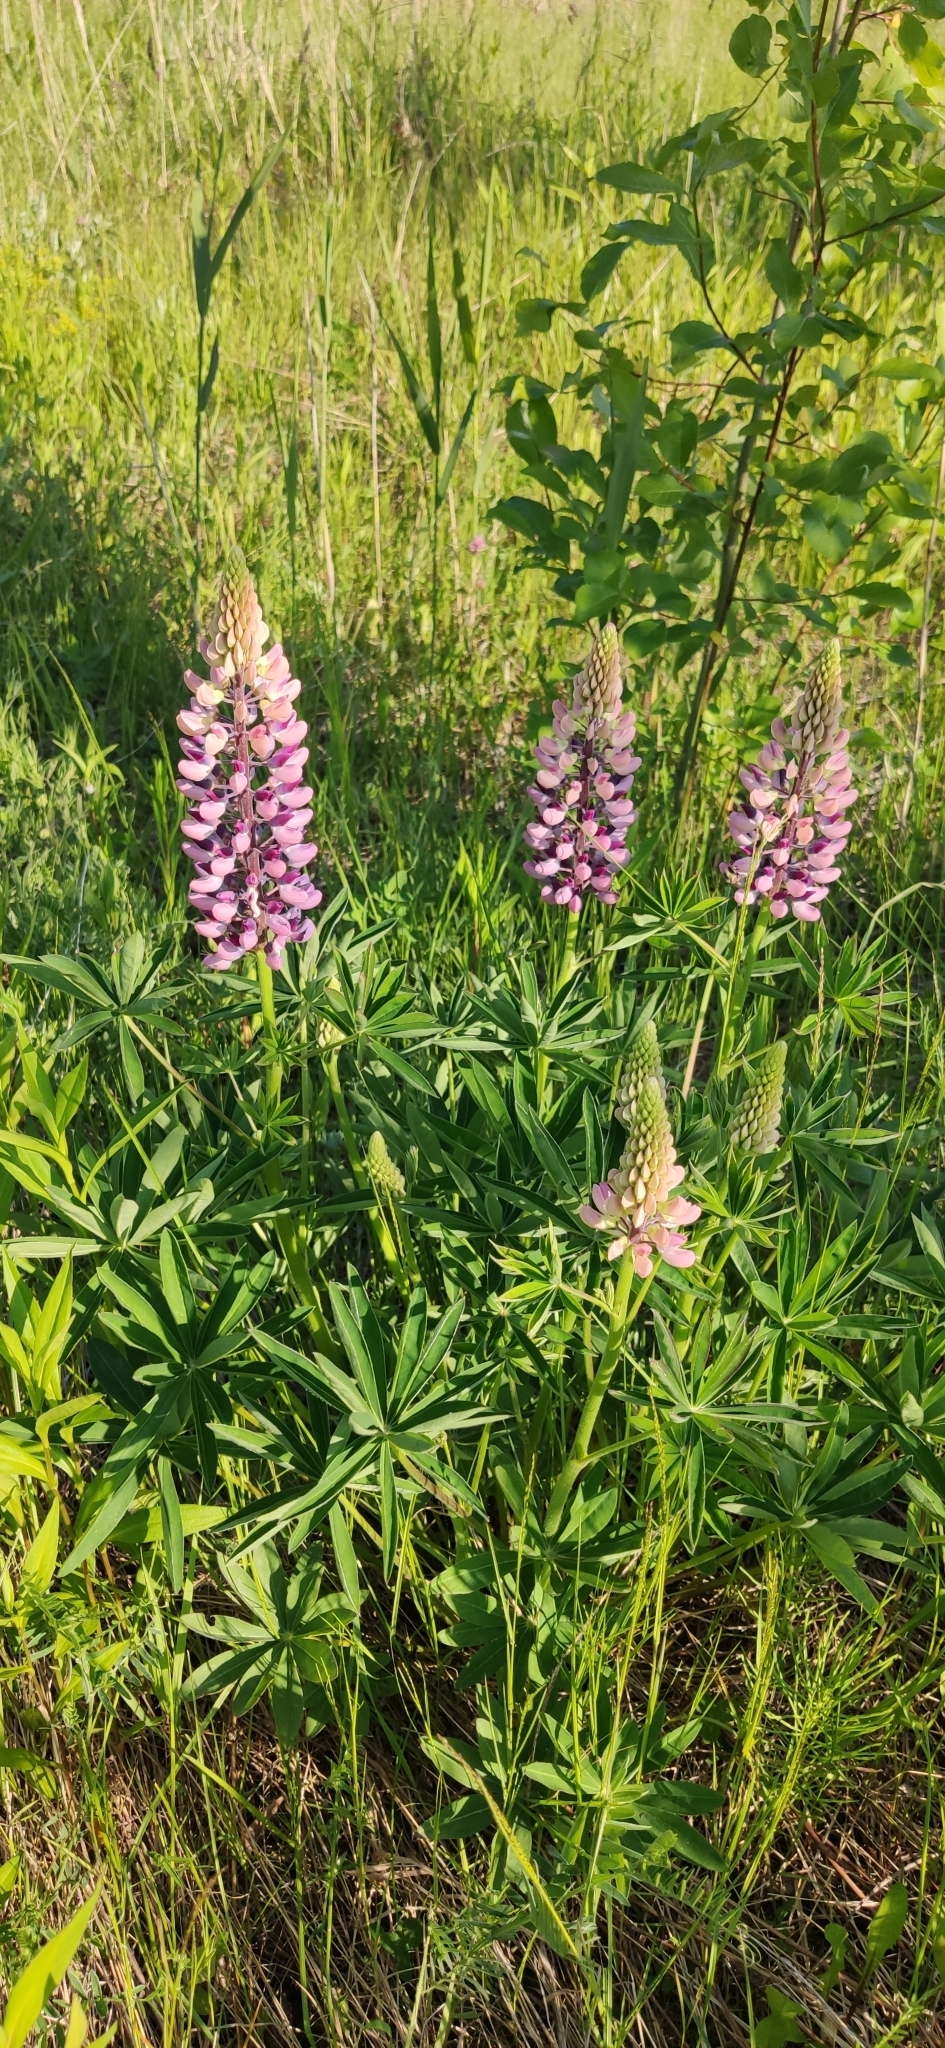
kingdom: Plantae
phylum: Tracheophyta
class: Magnoliopsida
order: Fabales
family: Fabaceae
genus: Lupinus
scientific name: Lupinus polyphyllus
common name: Garden lupin
